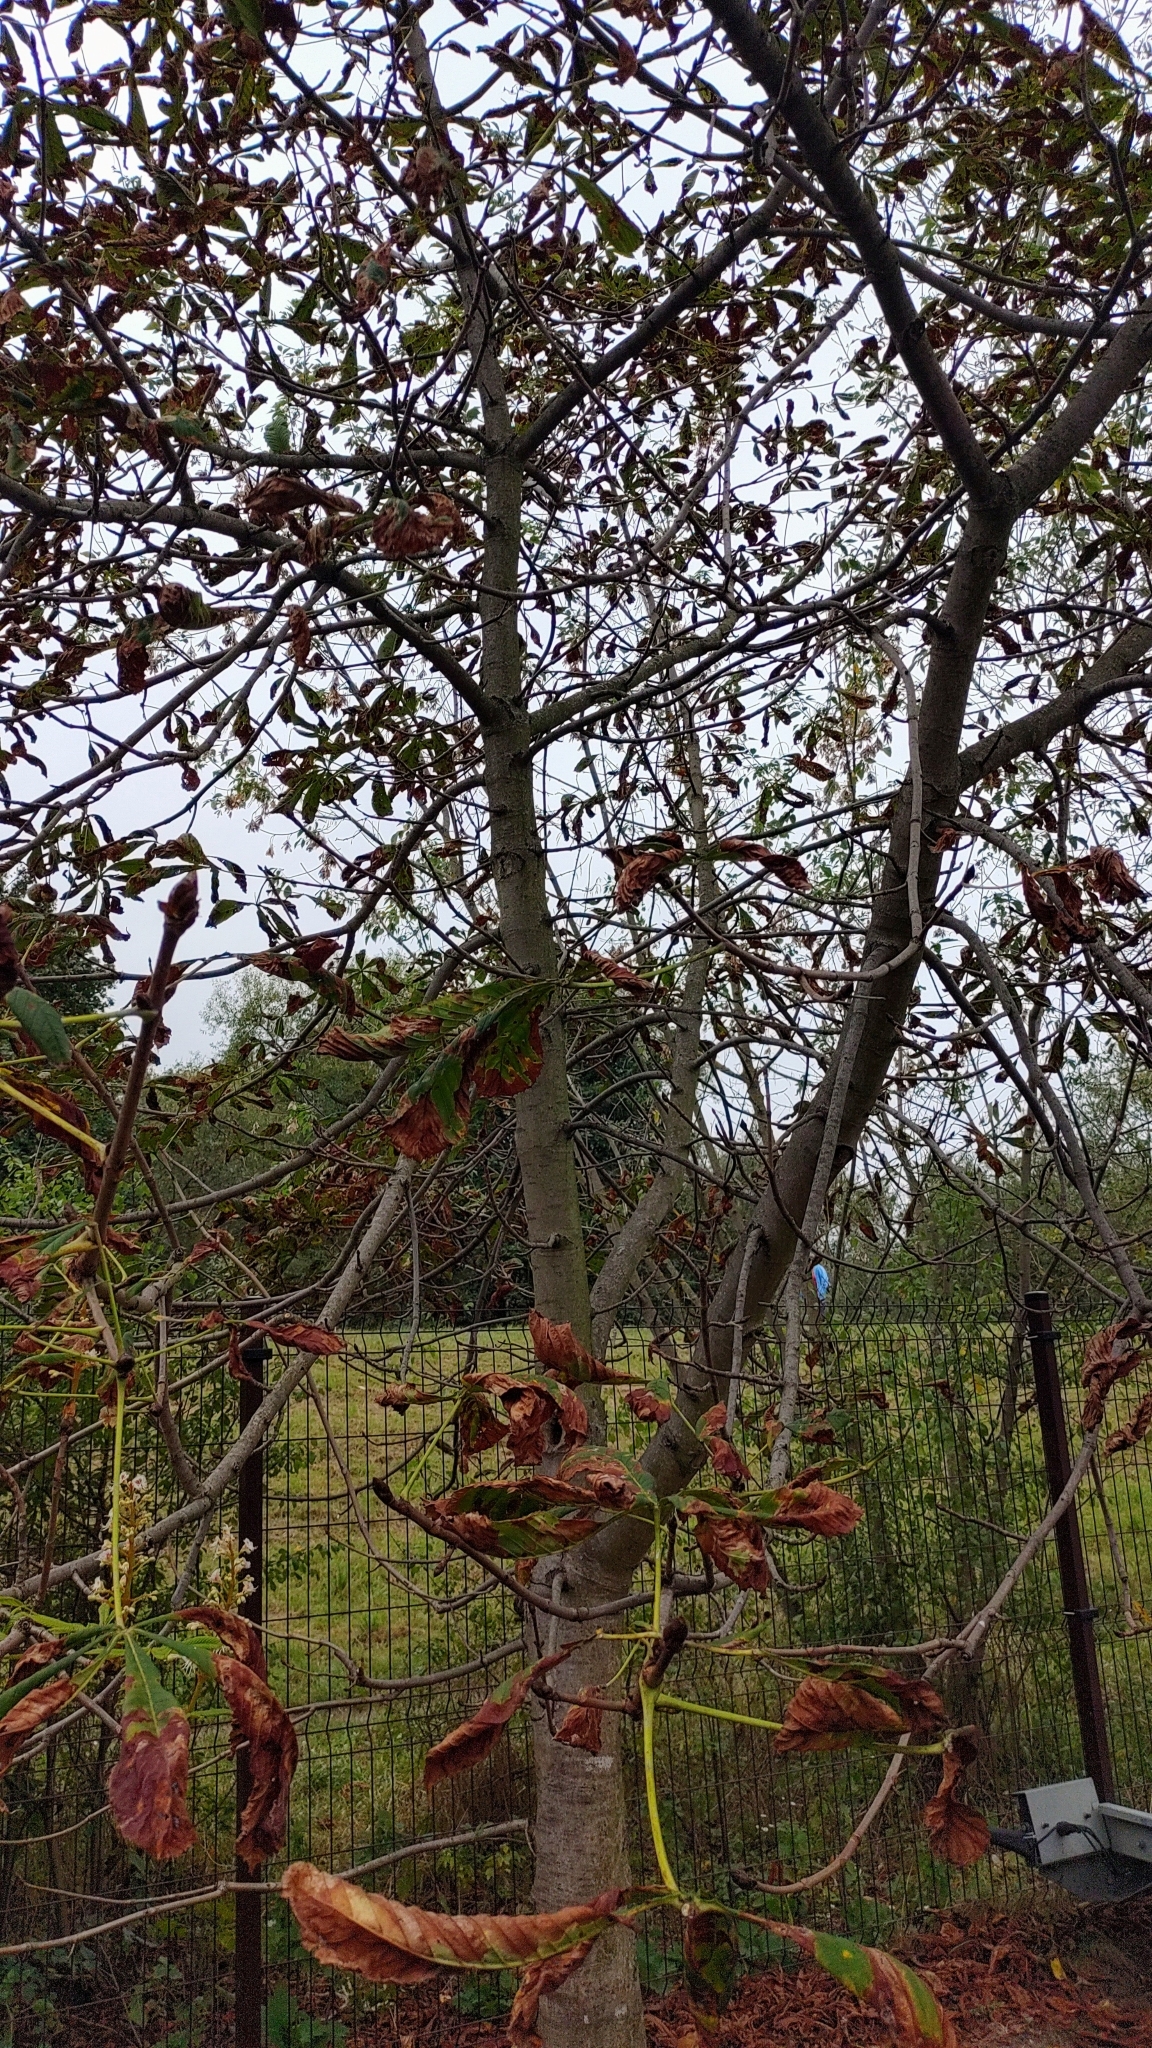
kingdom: Plantae
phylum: Tracheophyta
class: Magnoliopsida
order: Sapindales
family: Sapindaceae
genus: Aesculus
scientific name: Aesculus hippocastanum
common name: Horse-chestnut
